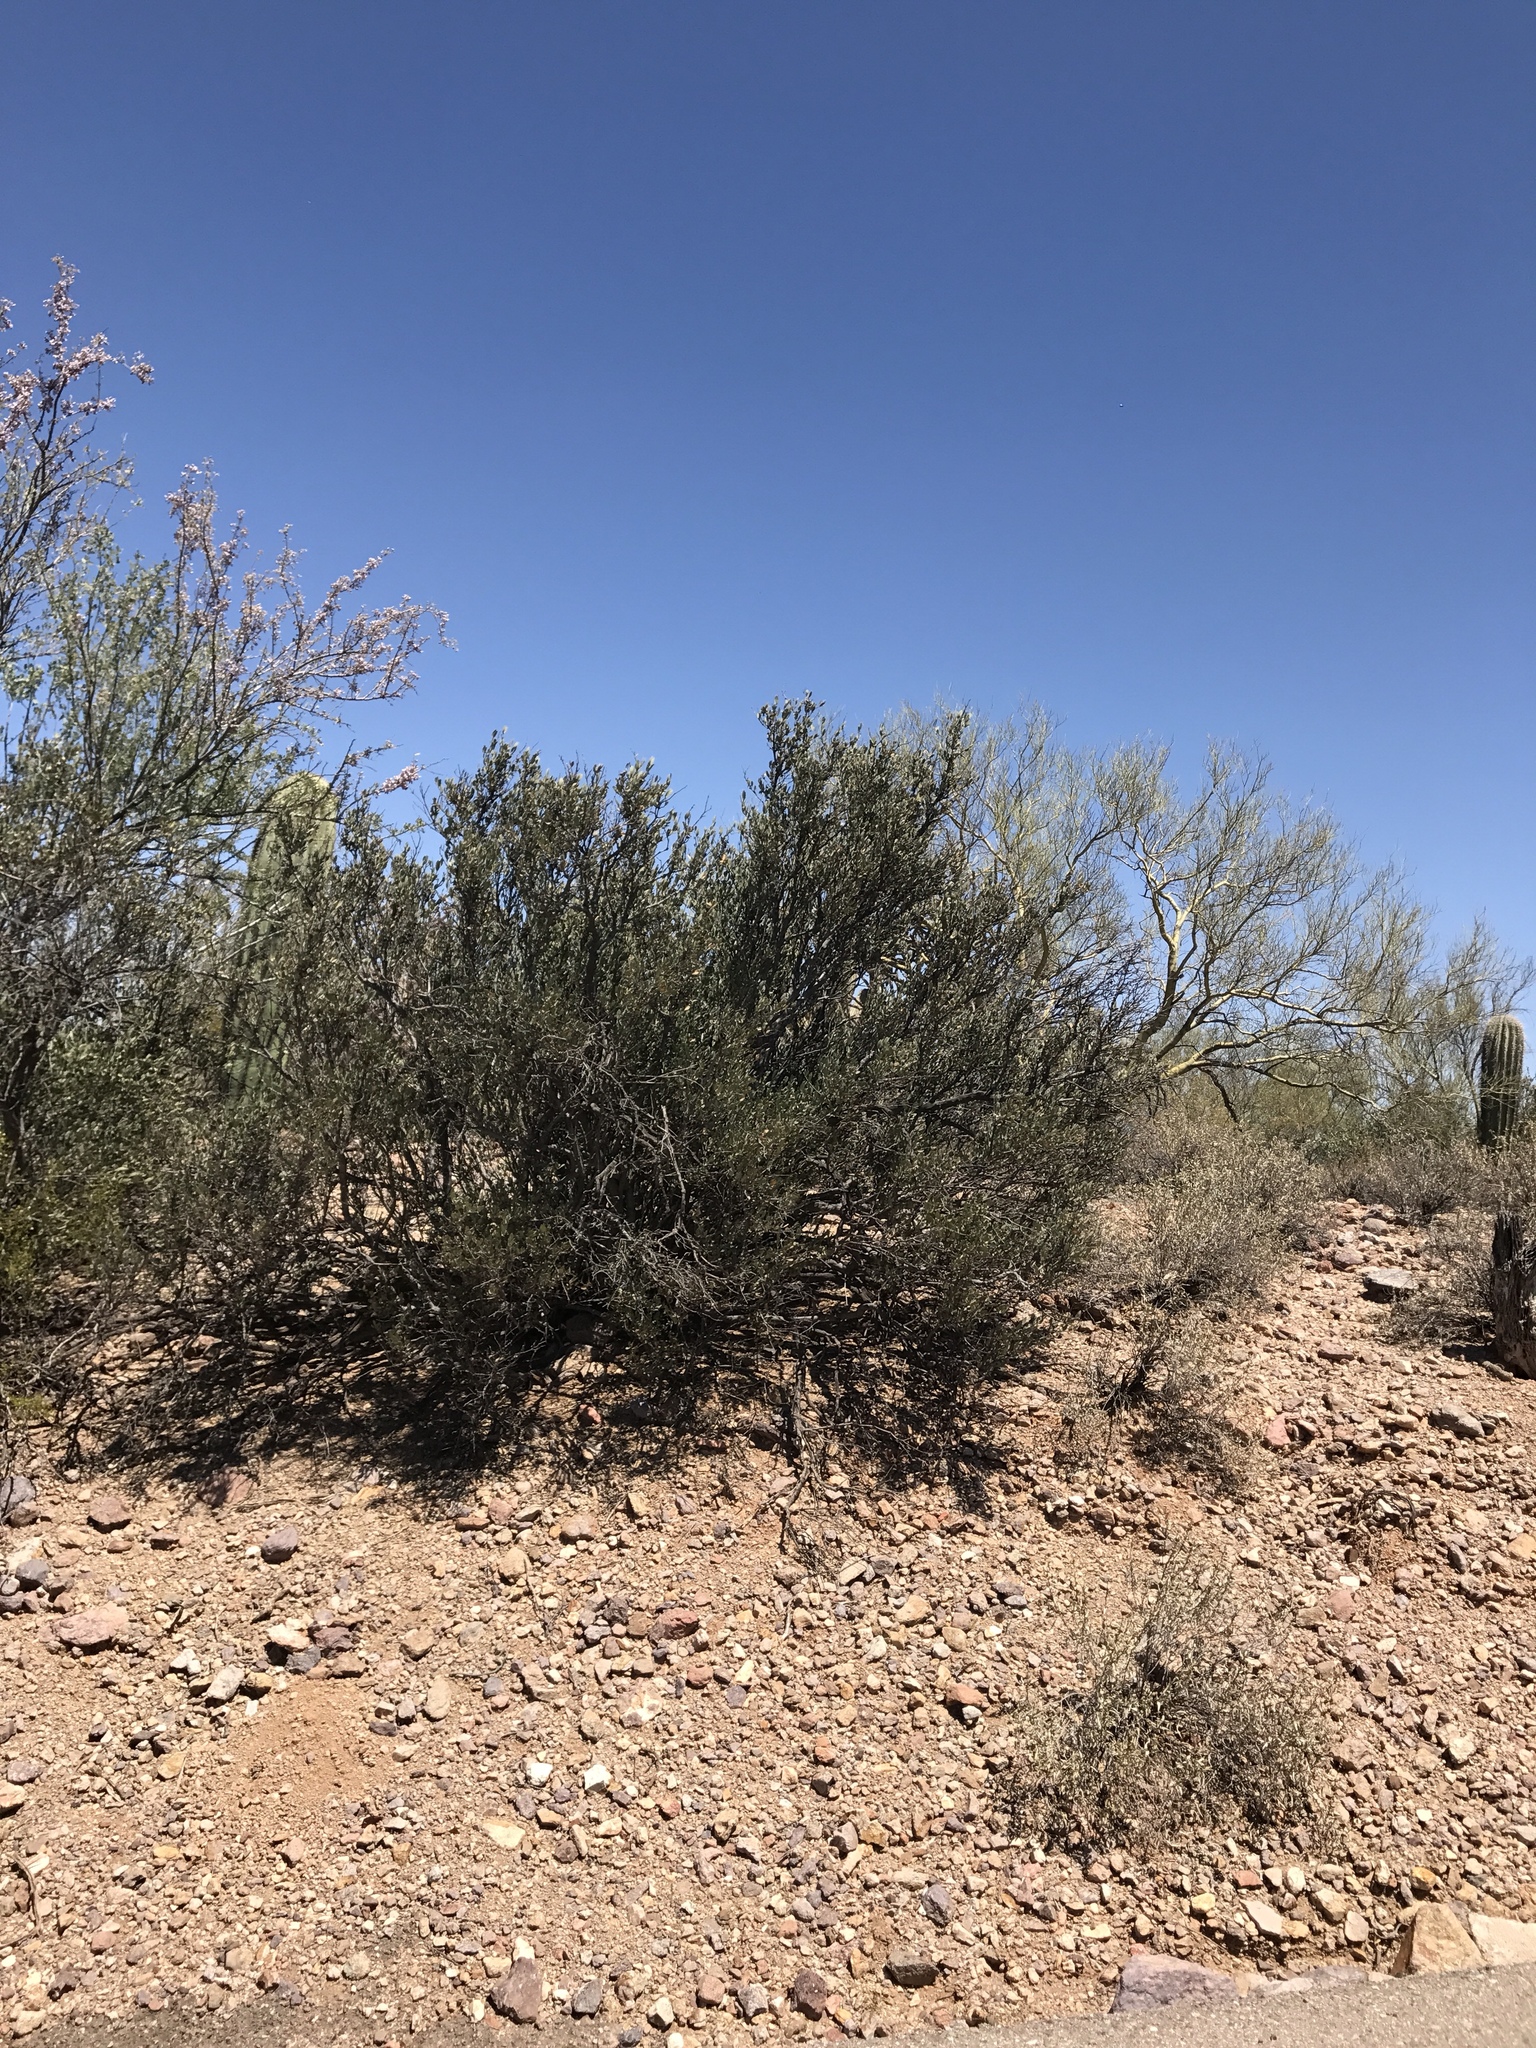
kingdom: Plantae
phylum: Tracheophyta
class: Magnoliopsida
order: Caryophyllales
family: Simmondsiaceae
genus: Simmondsia
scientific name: Simmondsia chinensis
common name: Jojoba
